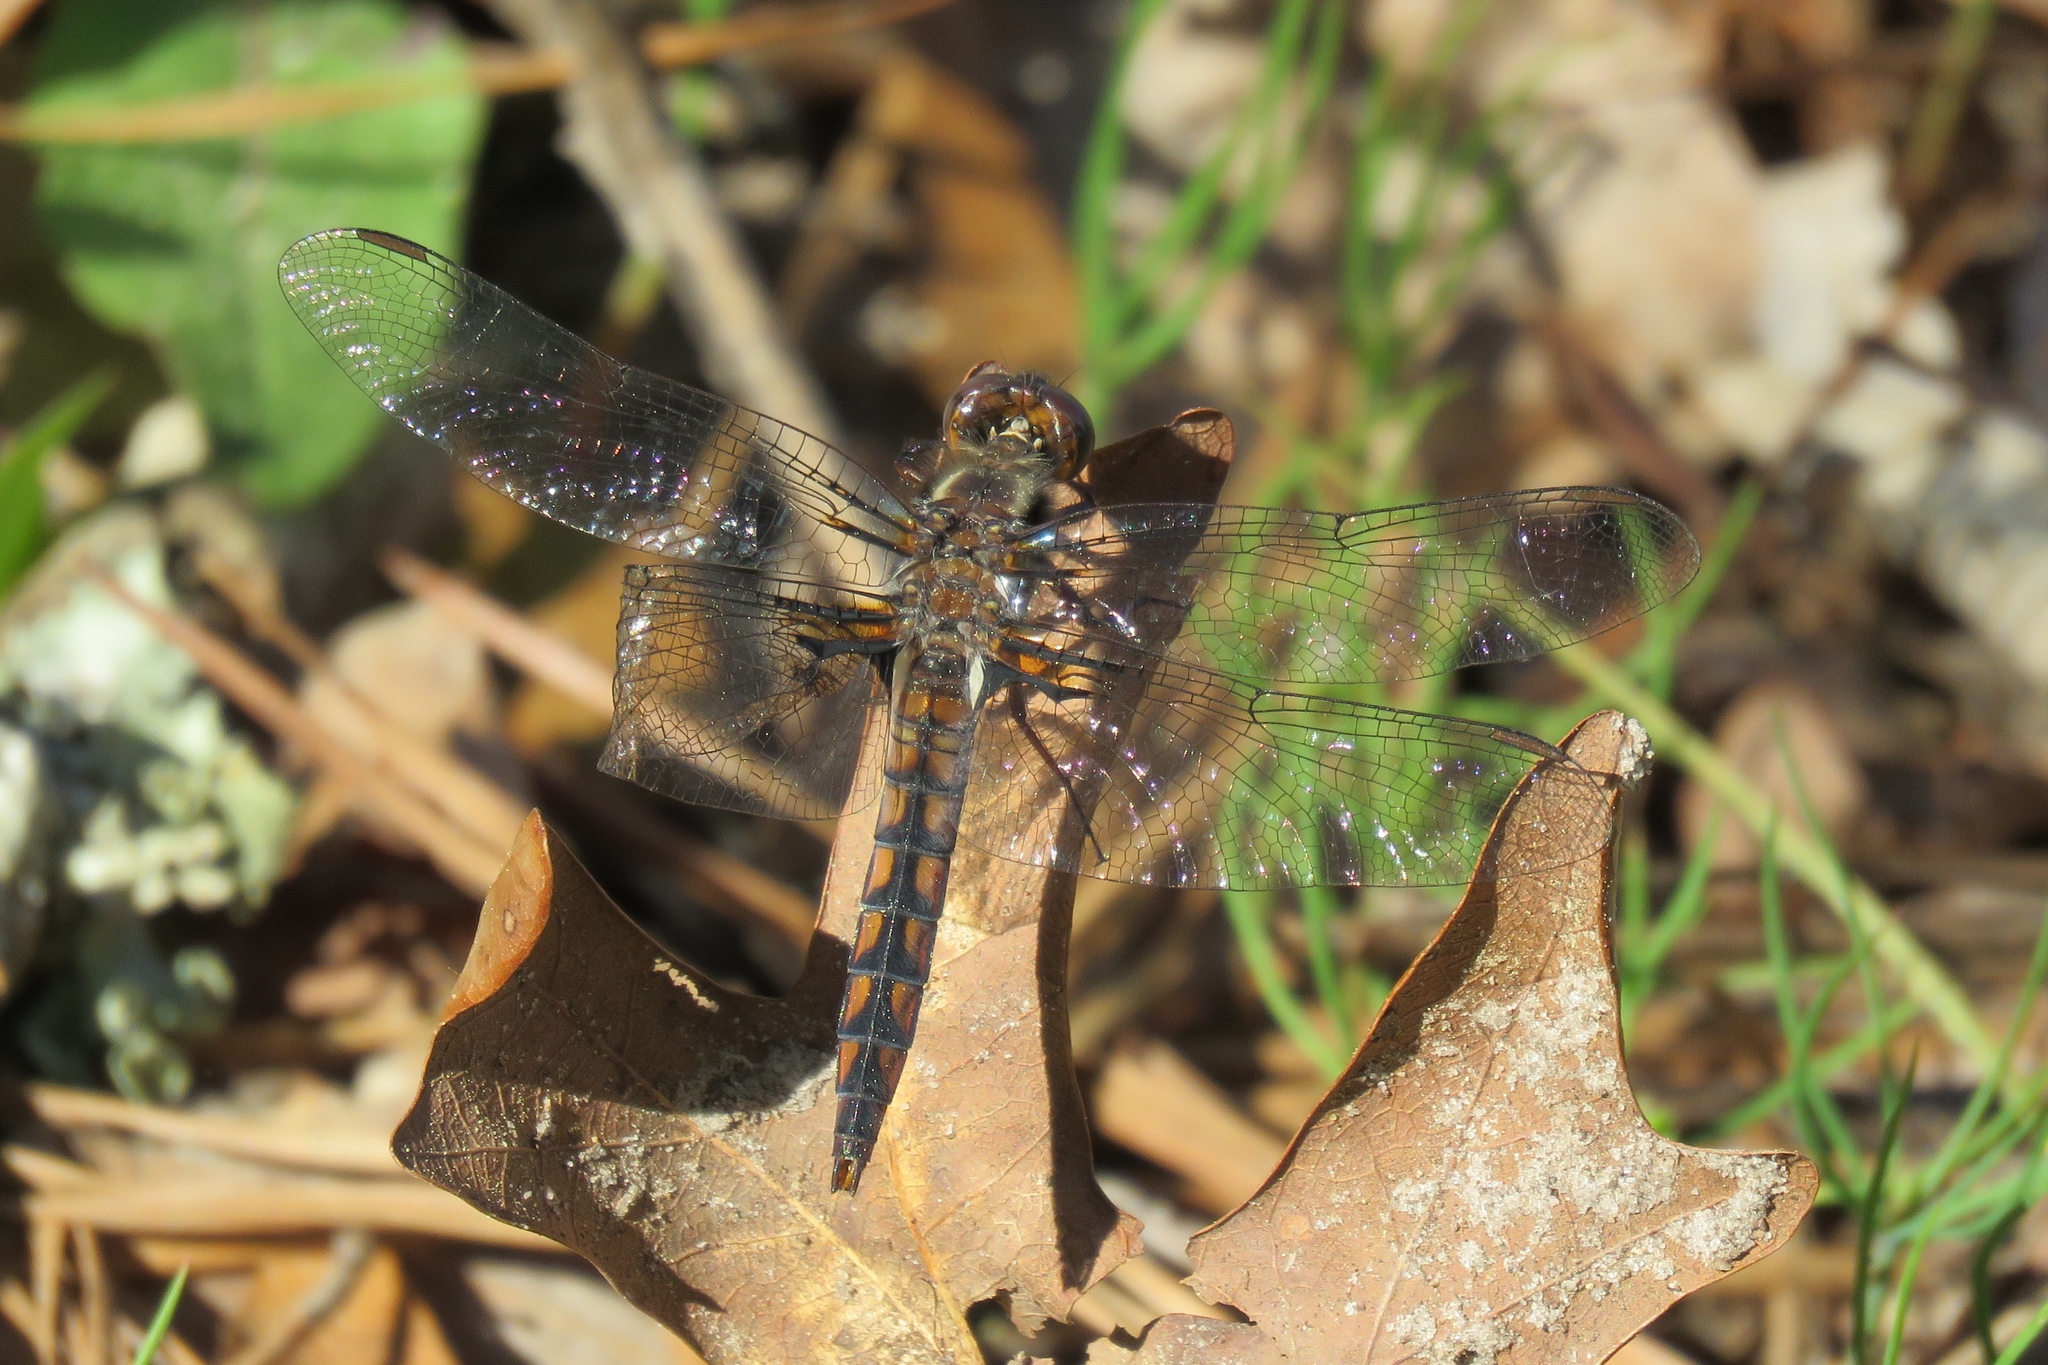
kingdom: Animalia
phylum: Arthropoda
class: Insecta
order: Odonata
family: Libellulidae
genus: Ladona
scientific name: Ladona deplanata
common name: Blue corporal
